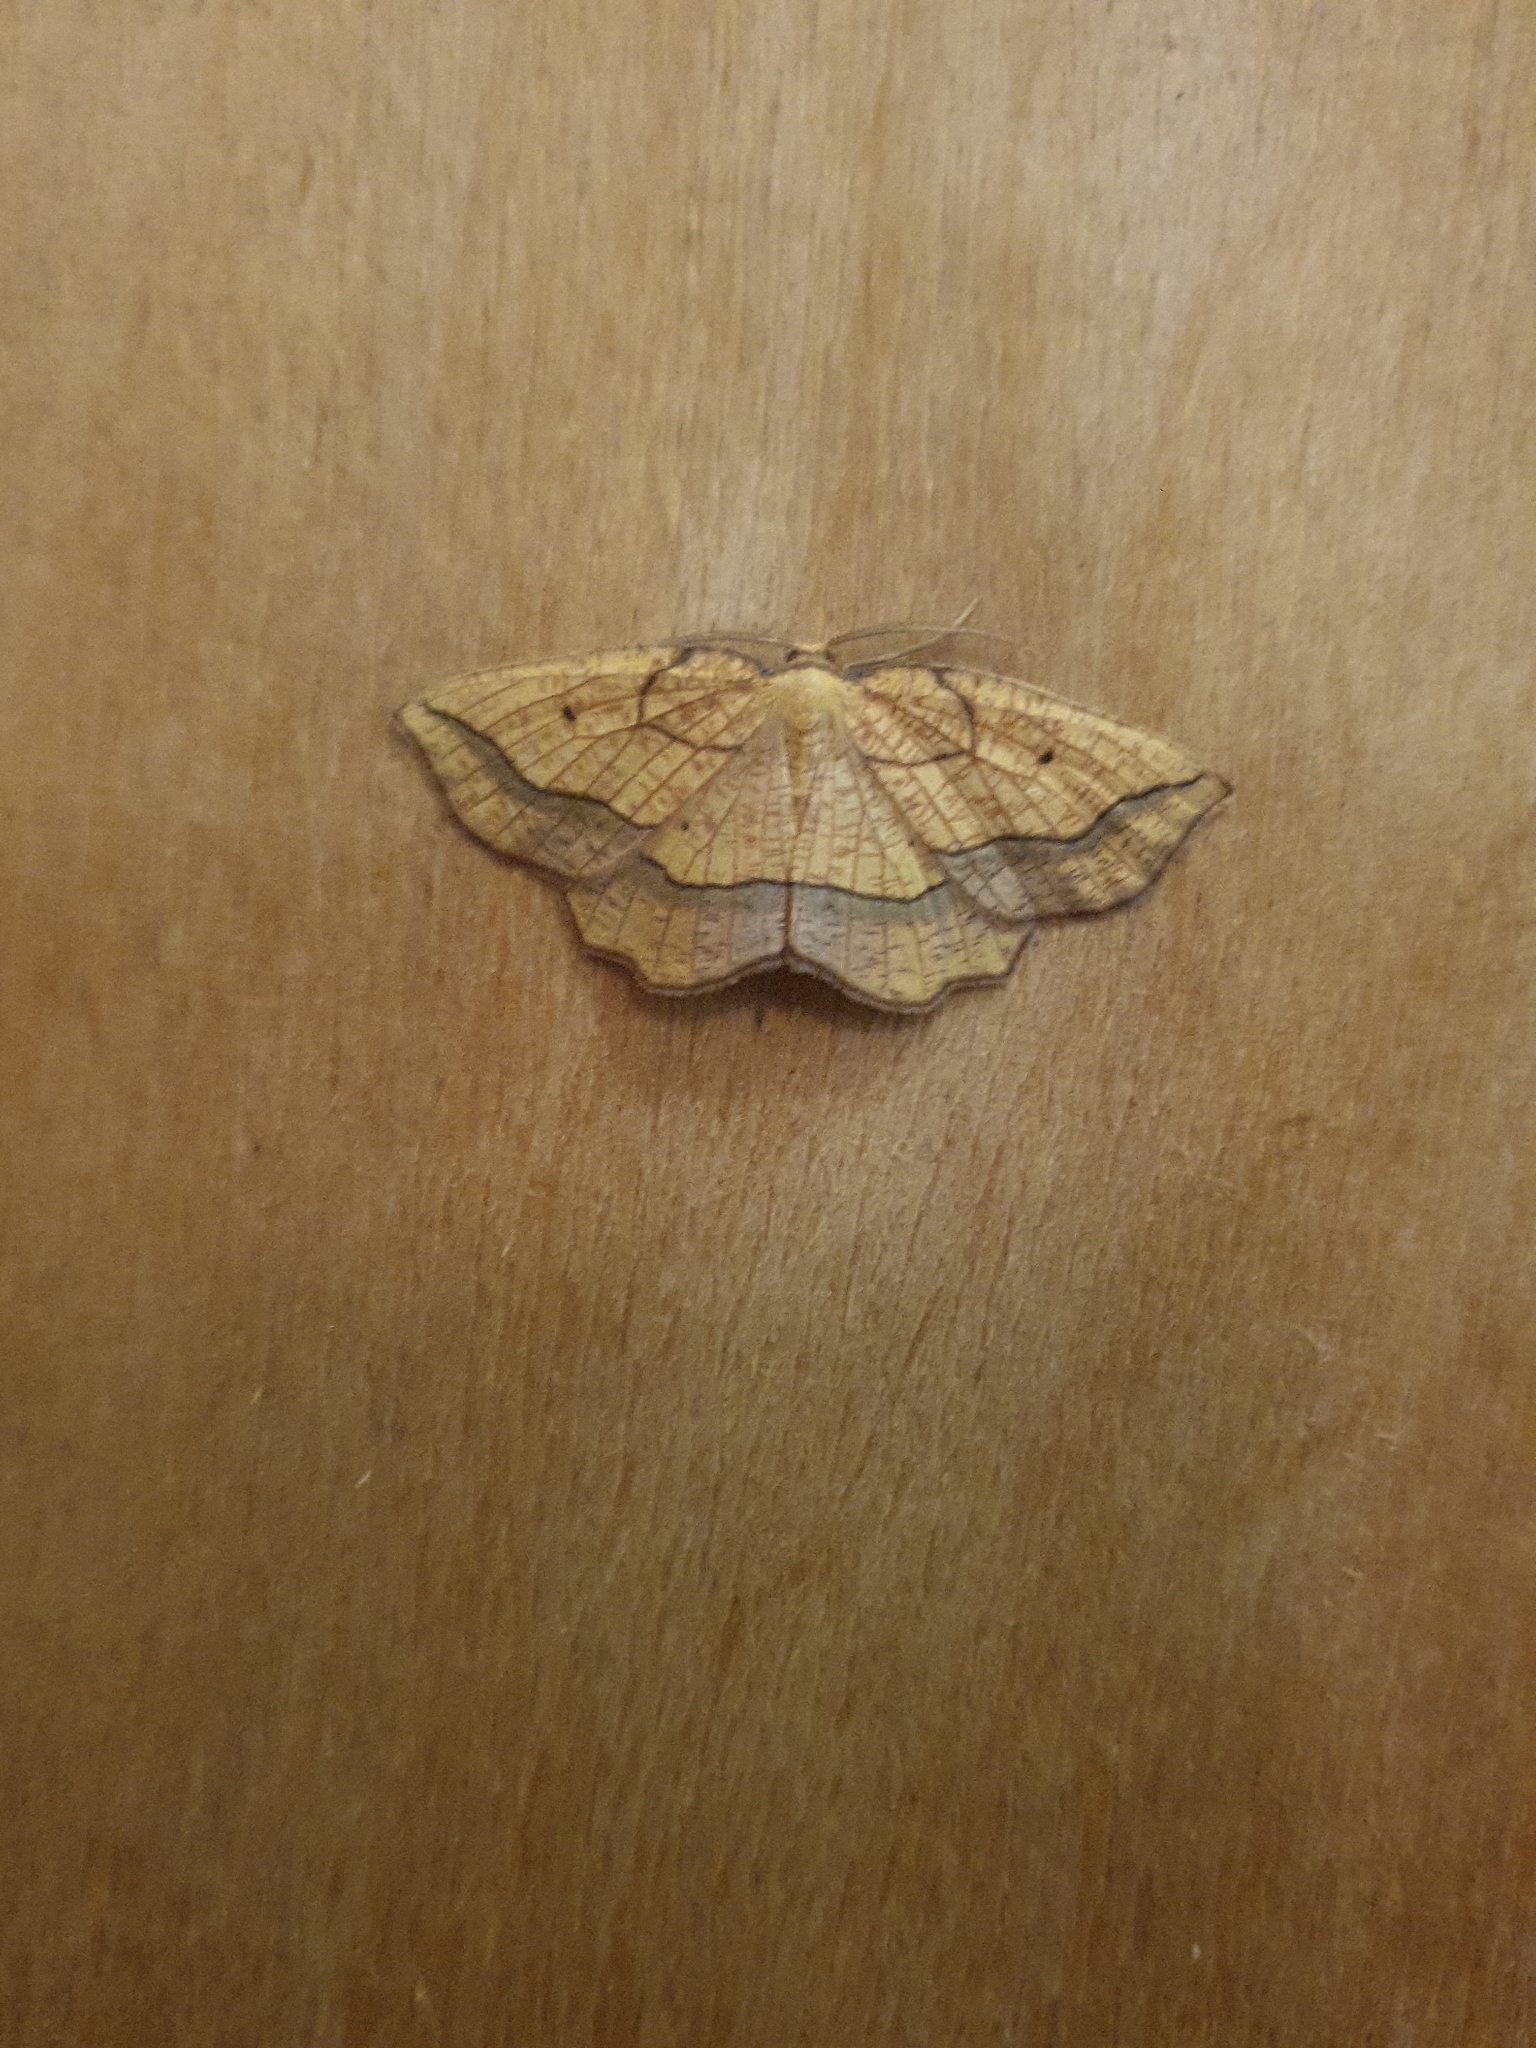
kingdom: Animalia
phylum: Arthropoda
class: Insecta
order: Lepidoptera
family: Geometridae
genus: Epione
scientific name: Epione repandaria
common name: Bordered beauty
